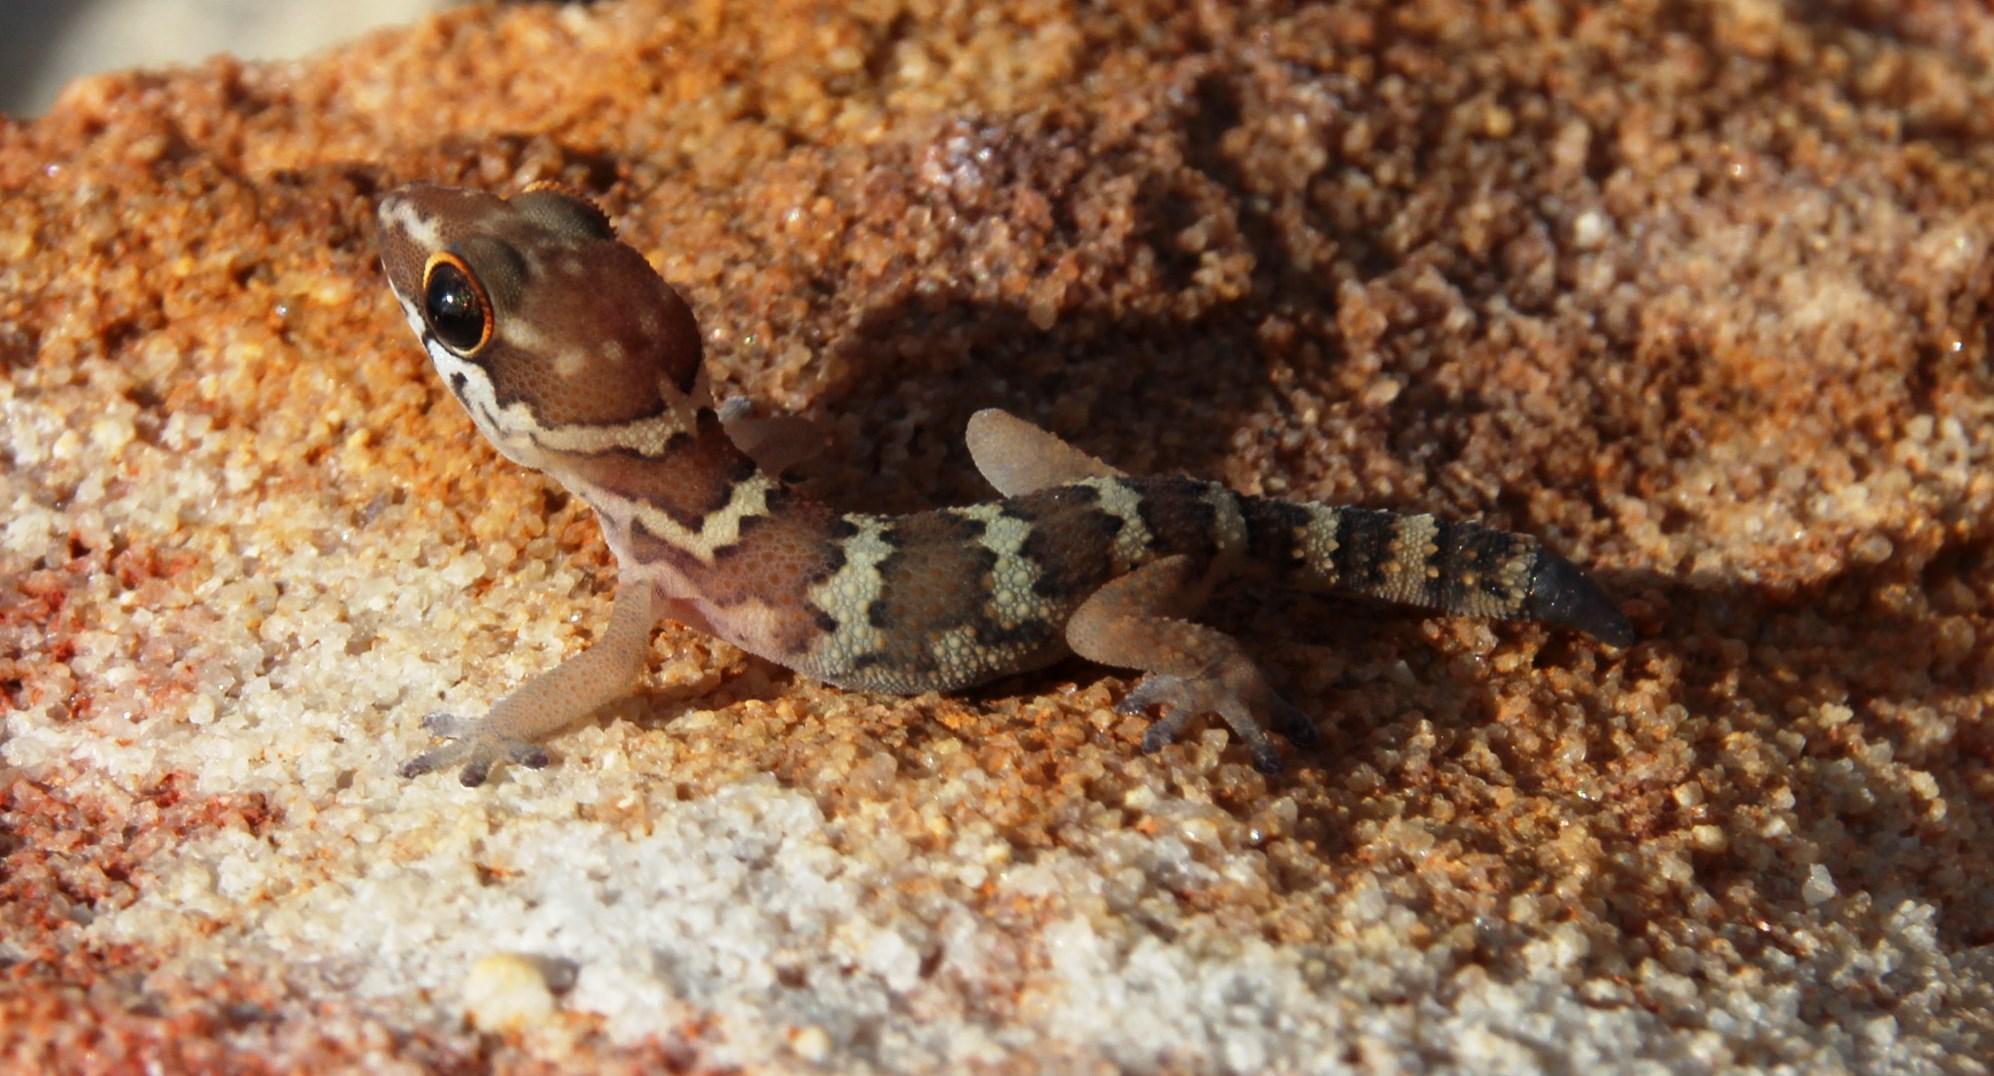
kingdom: Animalia
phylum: Chordata
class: Squamata
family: Gekkonidae
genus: Pachydactylus
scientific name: Pachydactylus formosus
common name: Southern rough gecko
